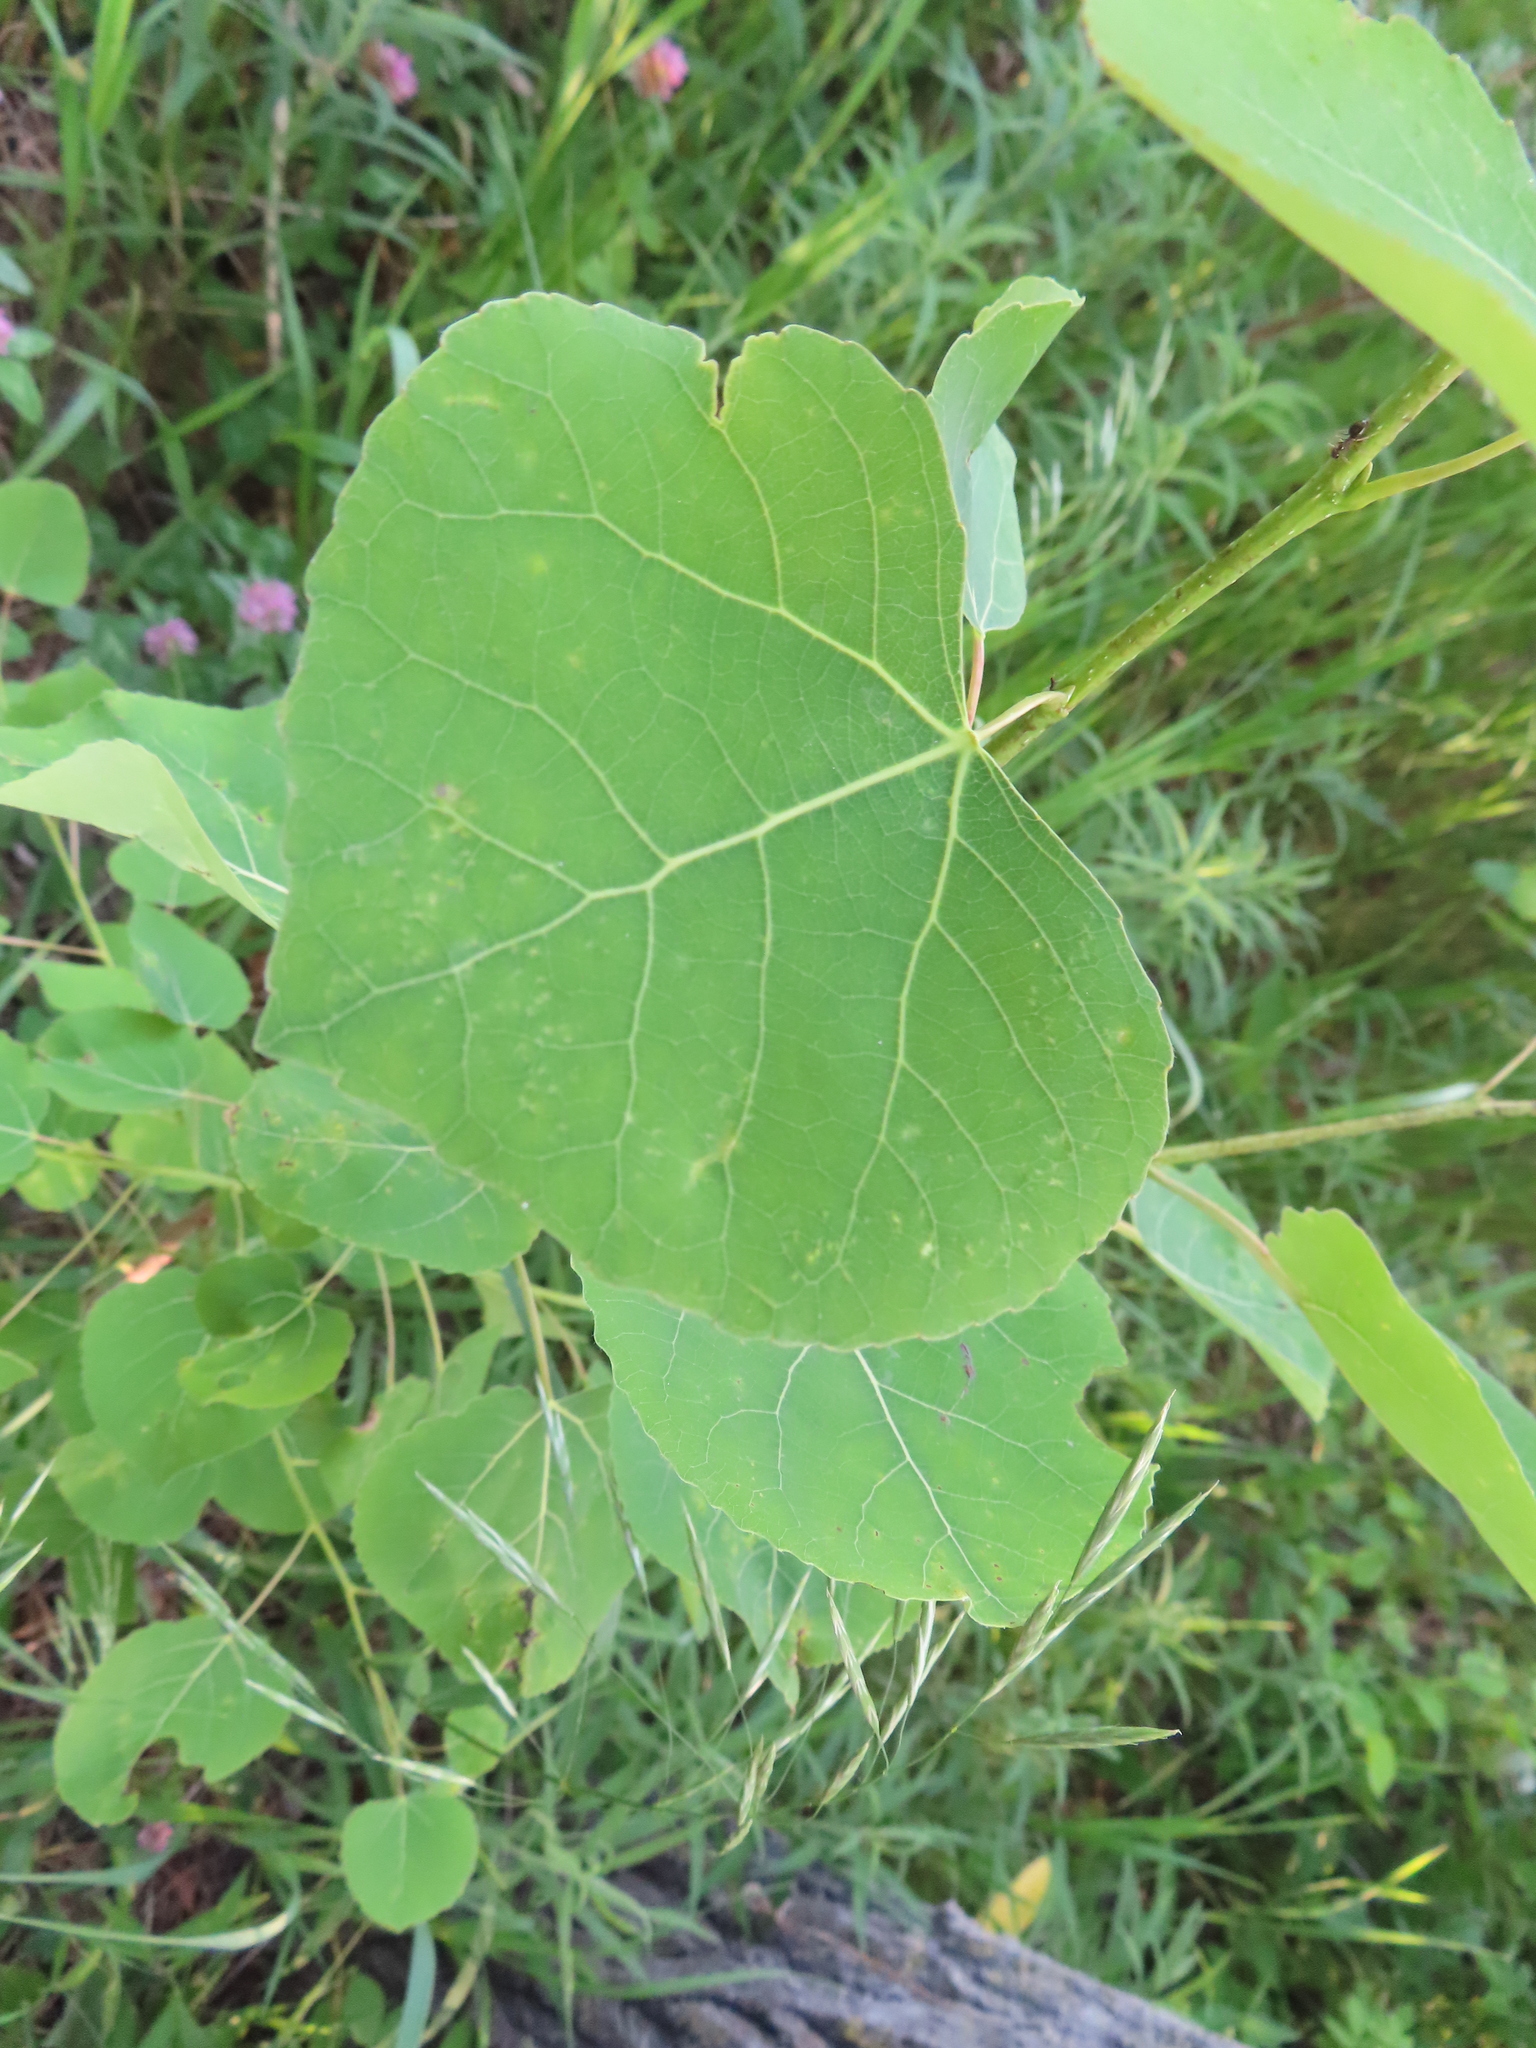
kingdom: Plantae
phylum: Tracheophyta
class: Magnoliopsida
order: Malpighiales
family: Salicaceae
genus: Populus
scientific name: Populus tremuloides
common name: Quaking aspen
